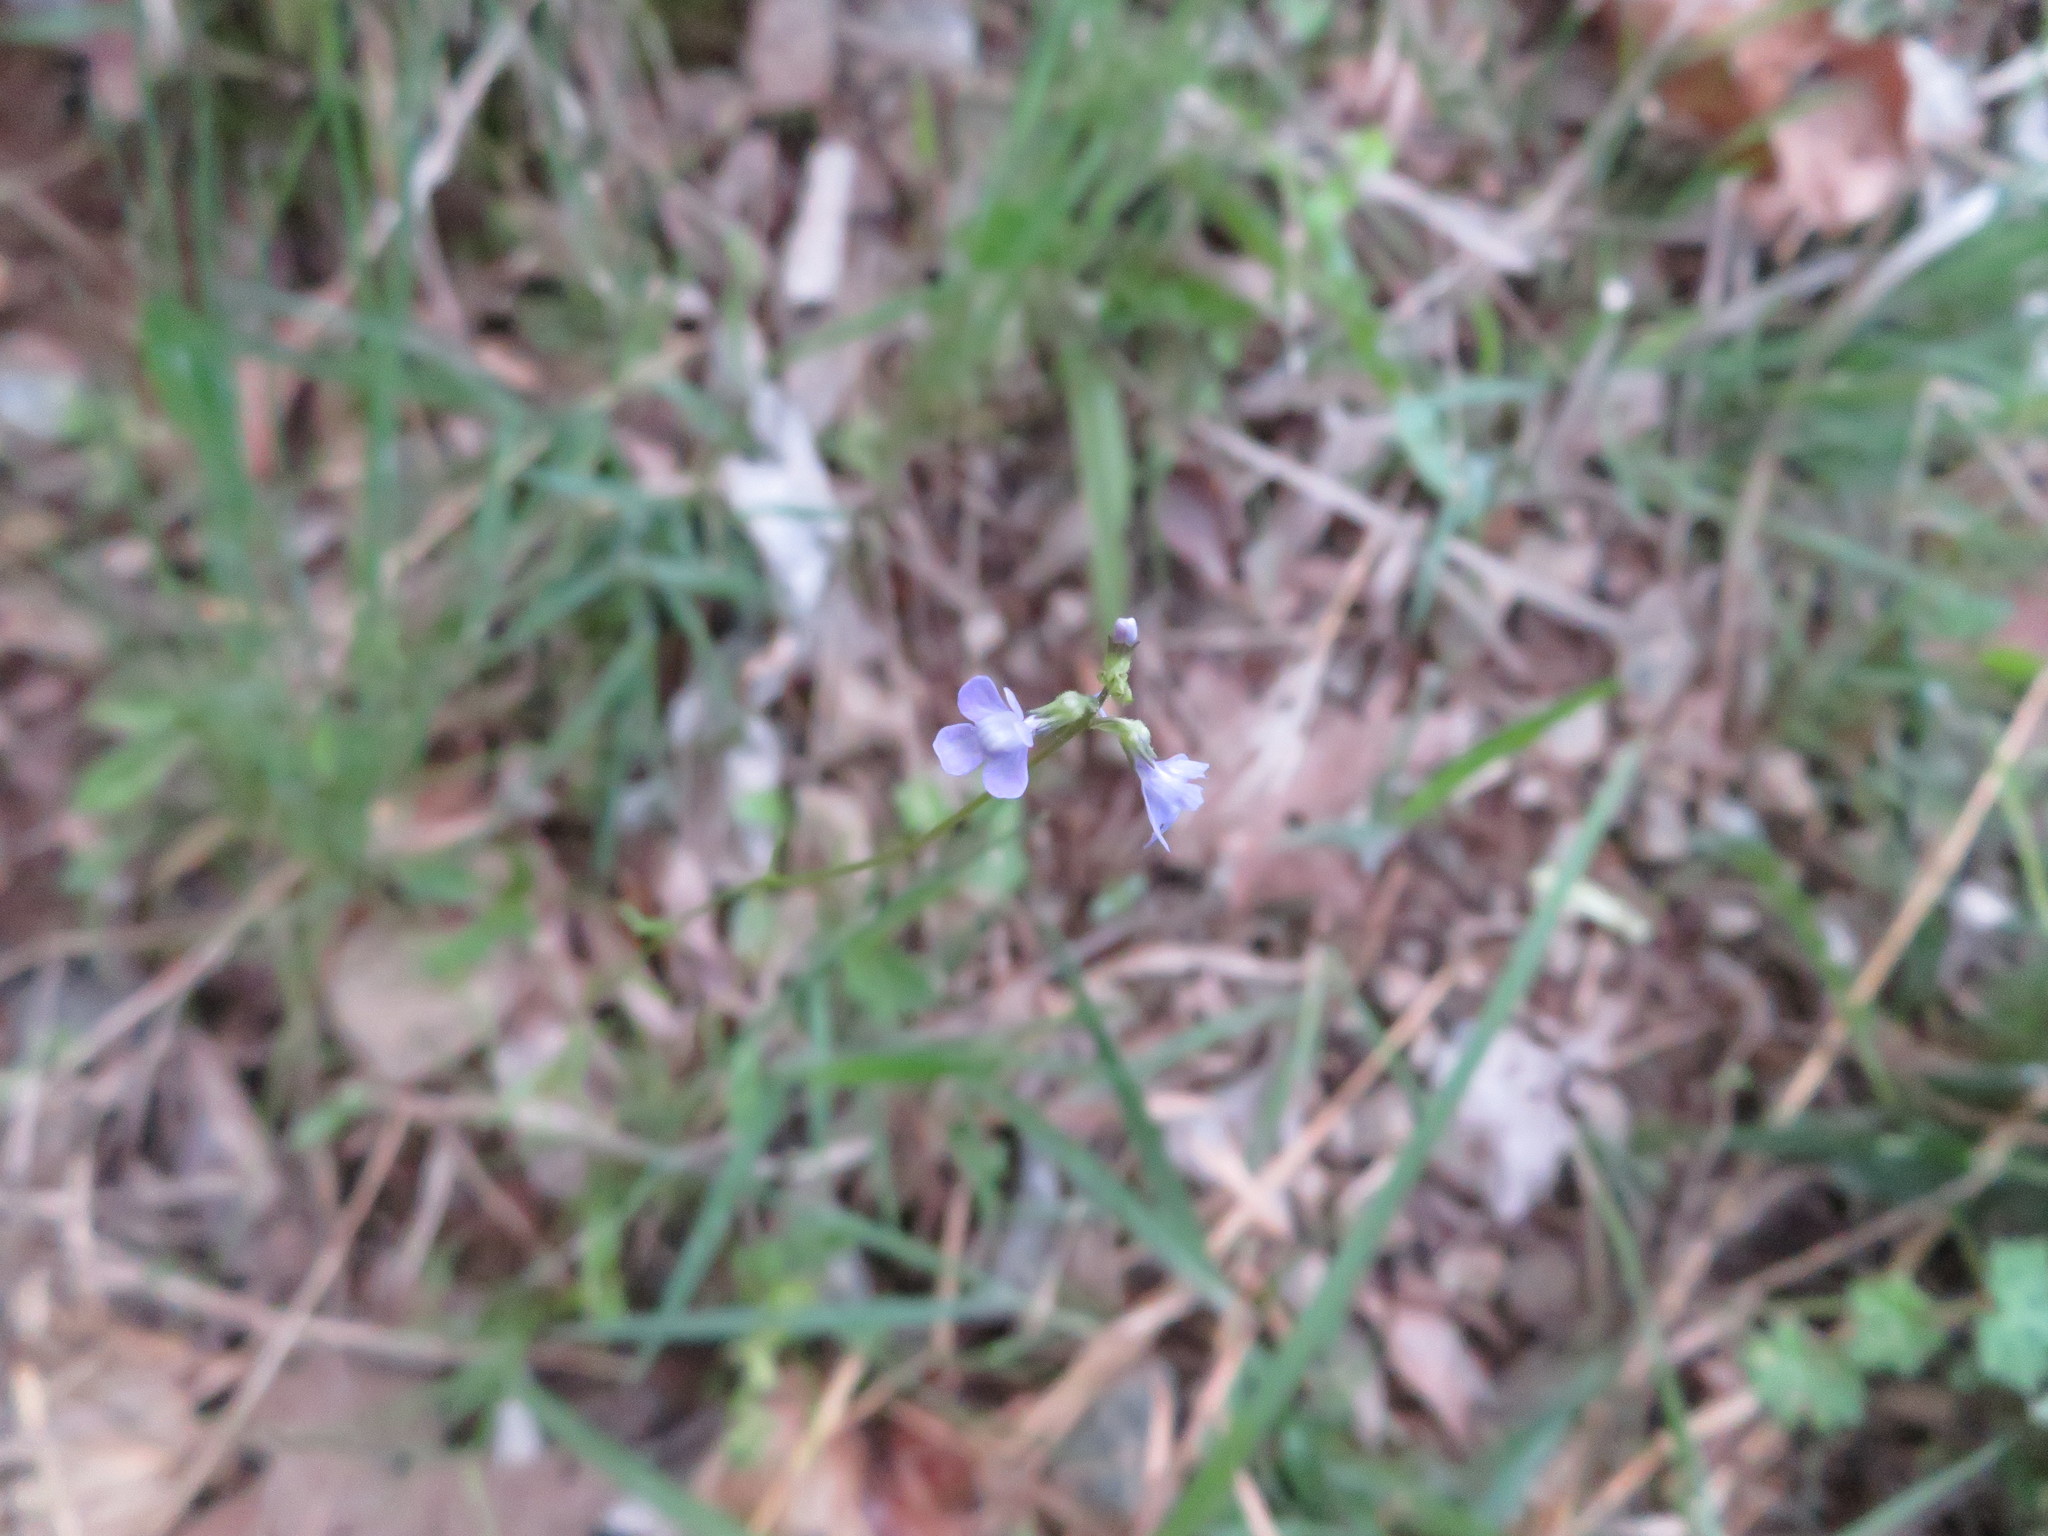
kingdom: Plantae
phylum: Tracheophyta
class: Magnoliopsida
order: Lamiales
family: Plantaginaceae
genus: Nuttallanthus
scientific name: Nuttallanthus canadensis
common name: Blue toadflax
